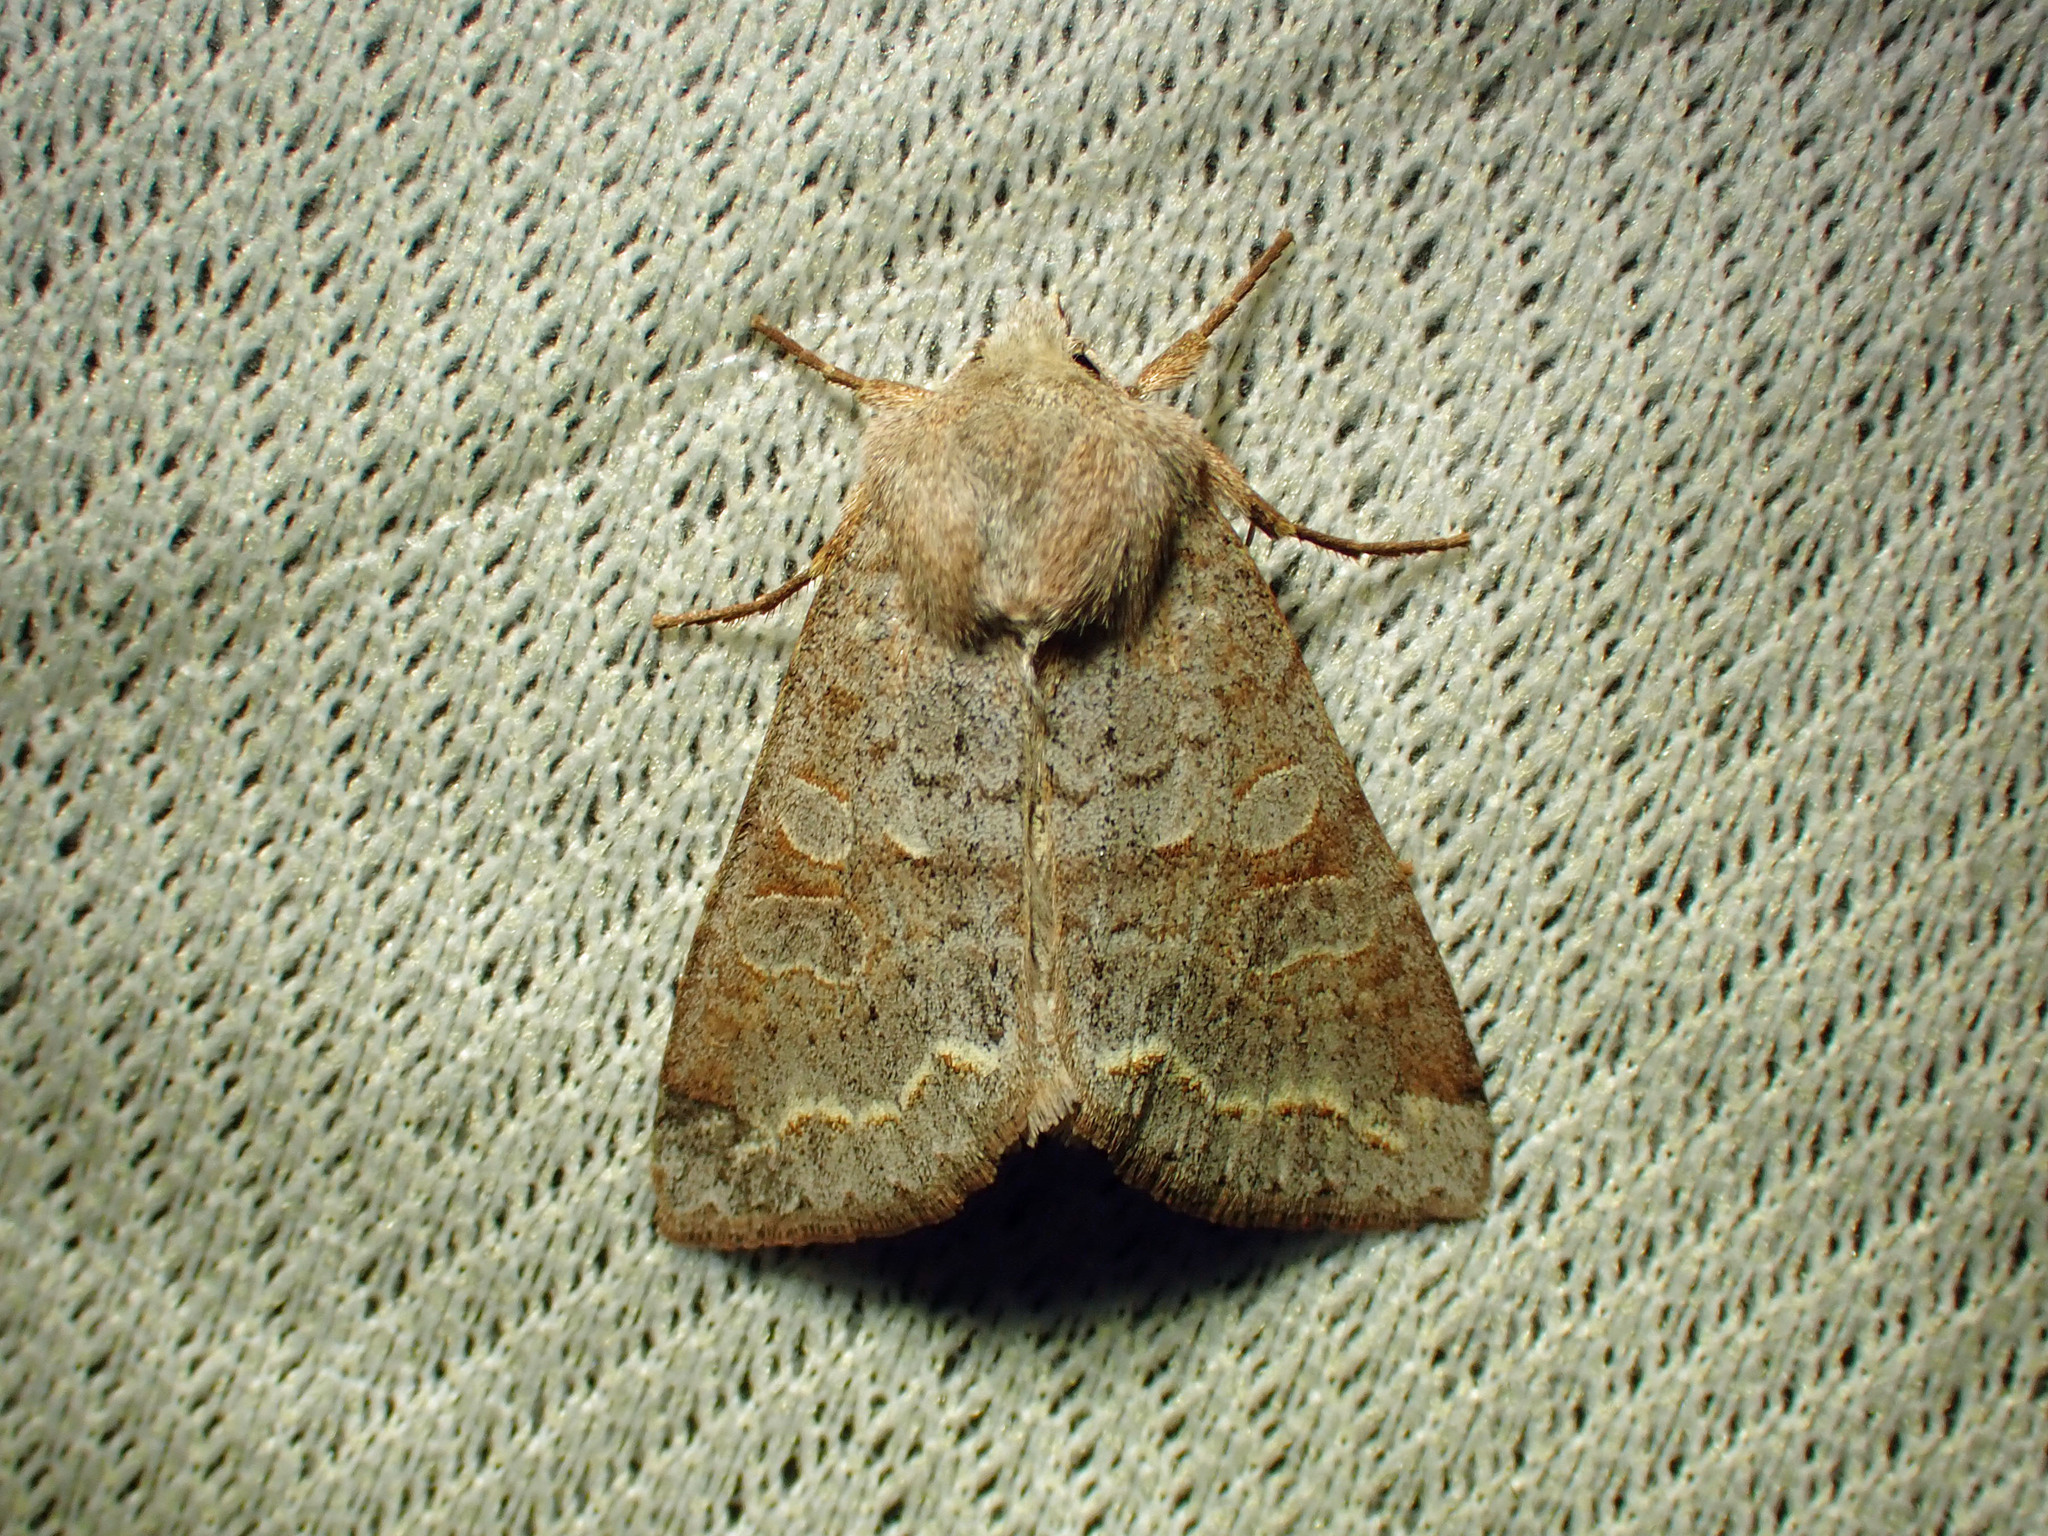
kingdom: Animalia
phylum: Arthropoda
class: Insecta
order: Lepidoptera
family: Noctuidae
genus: Orthosia
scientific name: Orthosia revicta
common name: Rusty whitesided caterpillar
